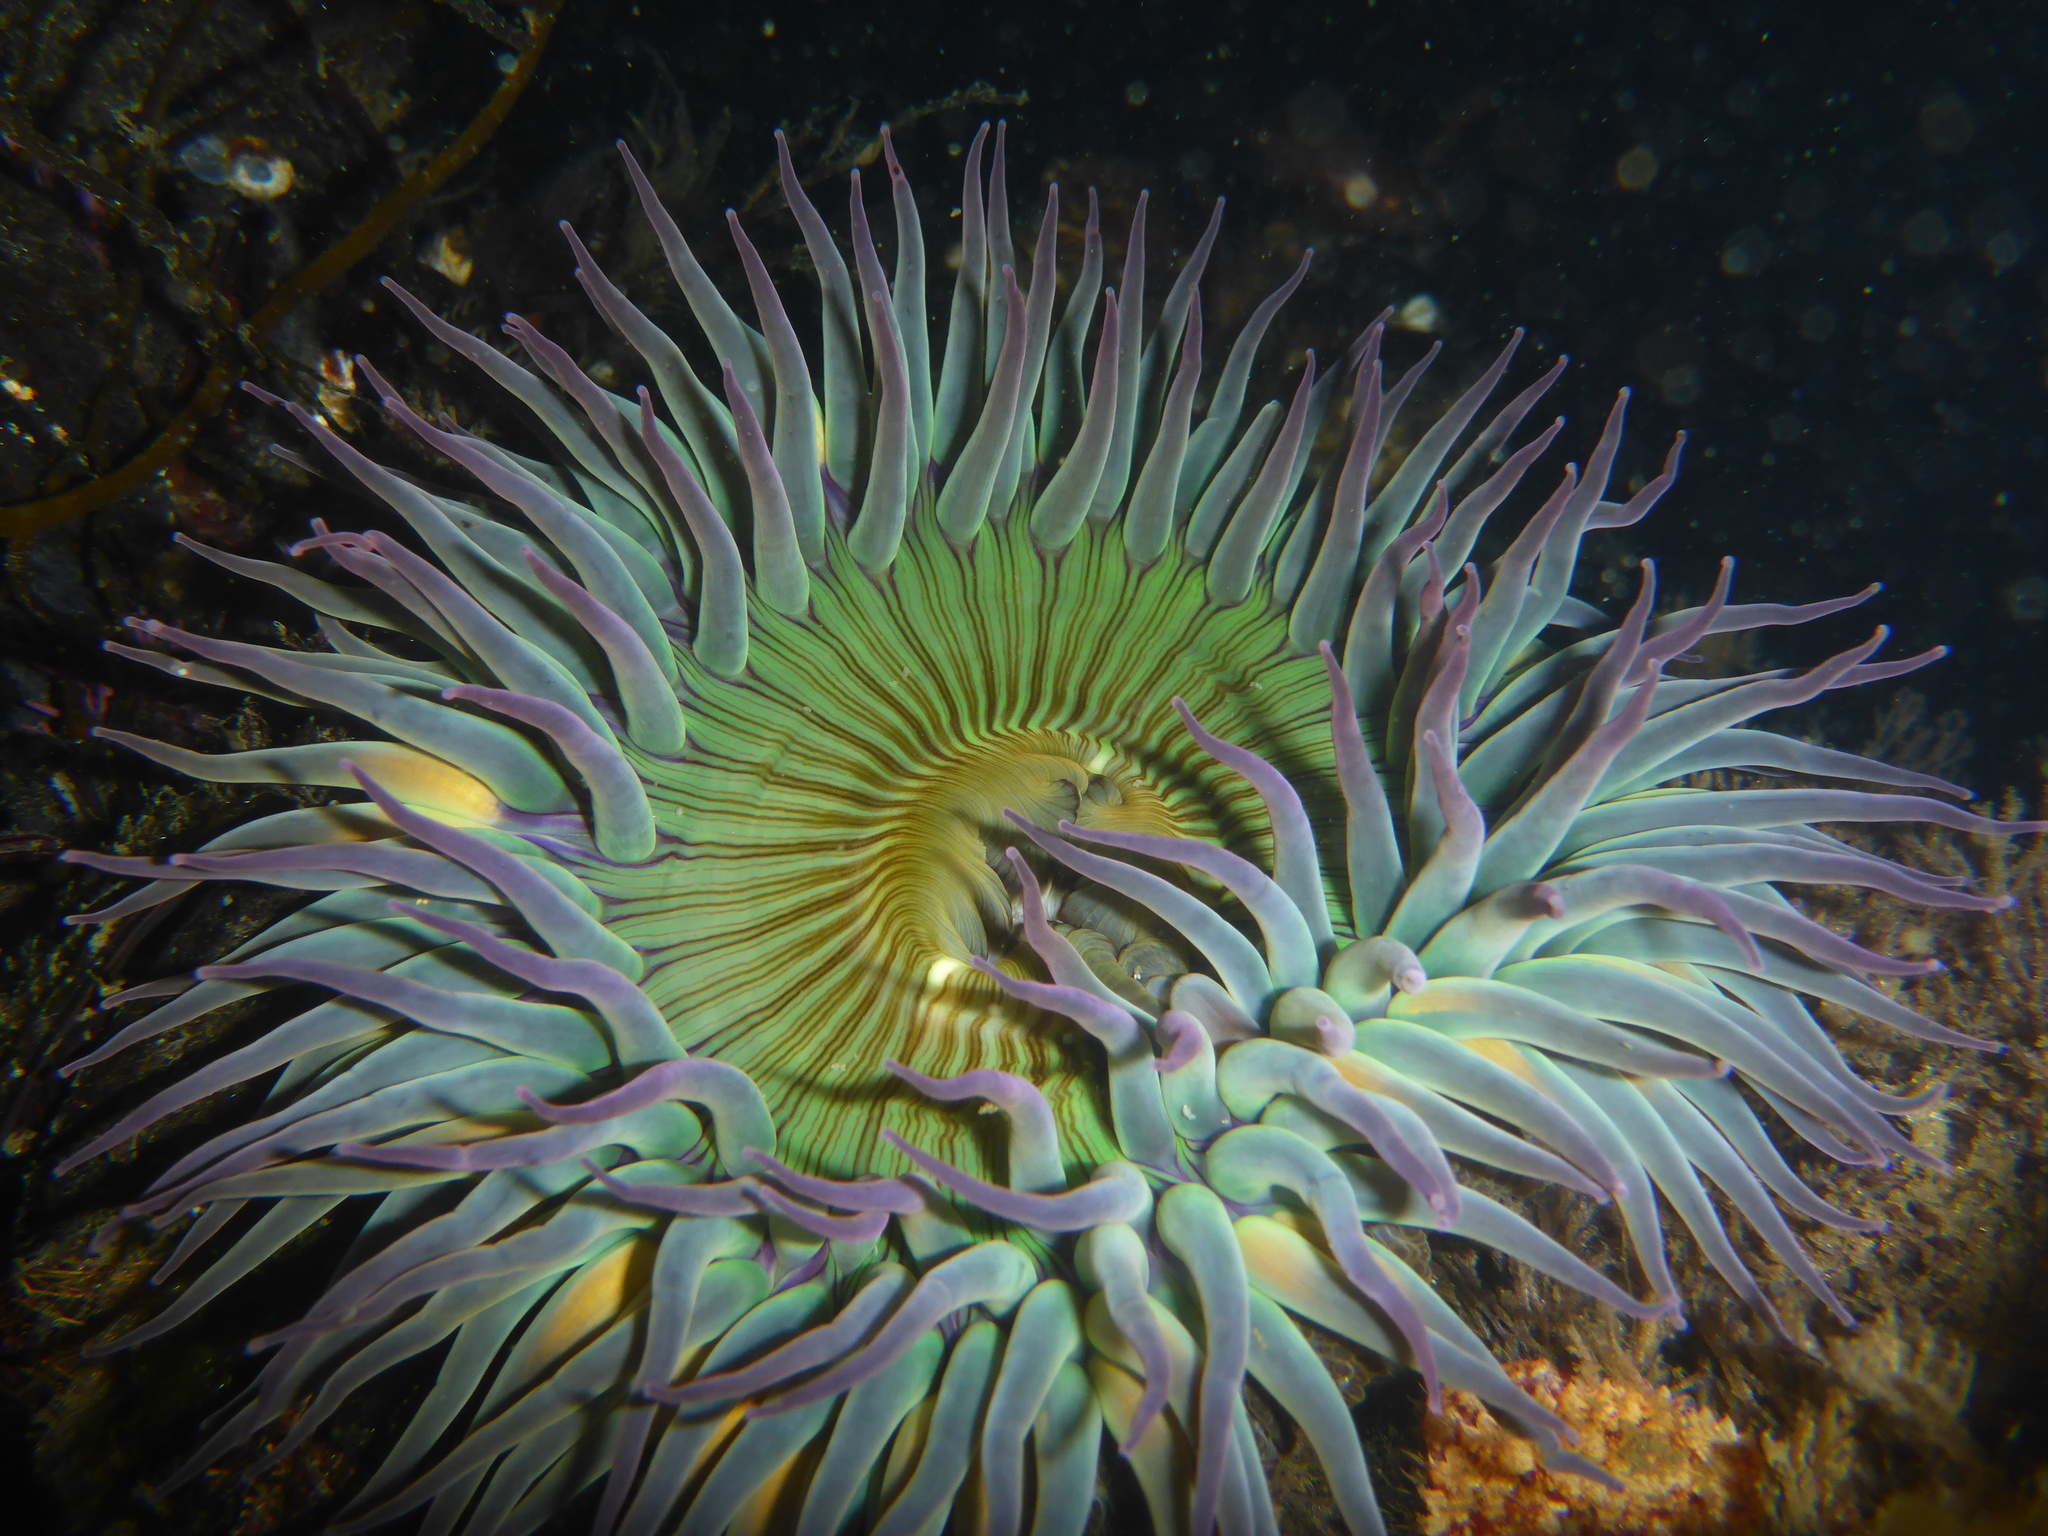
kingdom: Animalia
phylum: Cnidaria
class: Anthozoa
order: Actiniaria
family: Actiniidae
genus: Anthopleura
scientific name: Anthopleura sola
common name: Sun anemone
